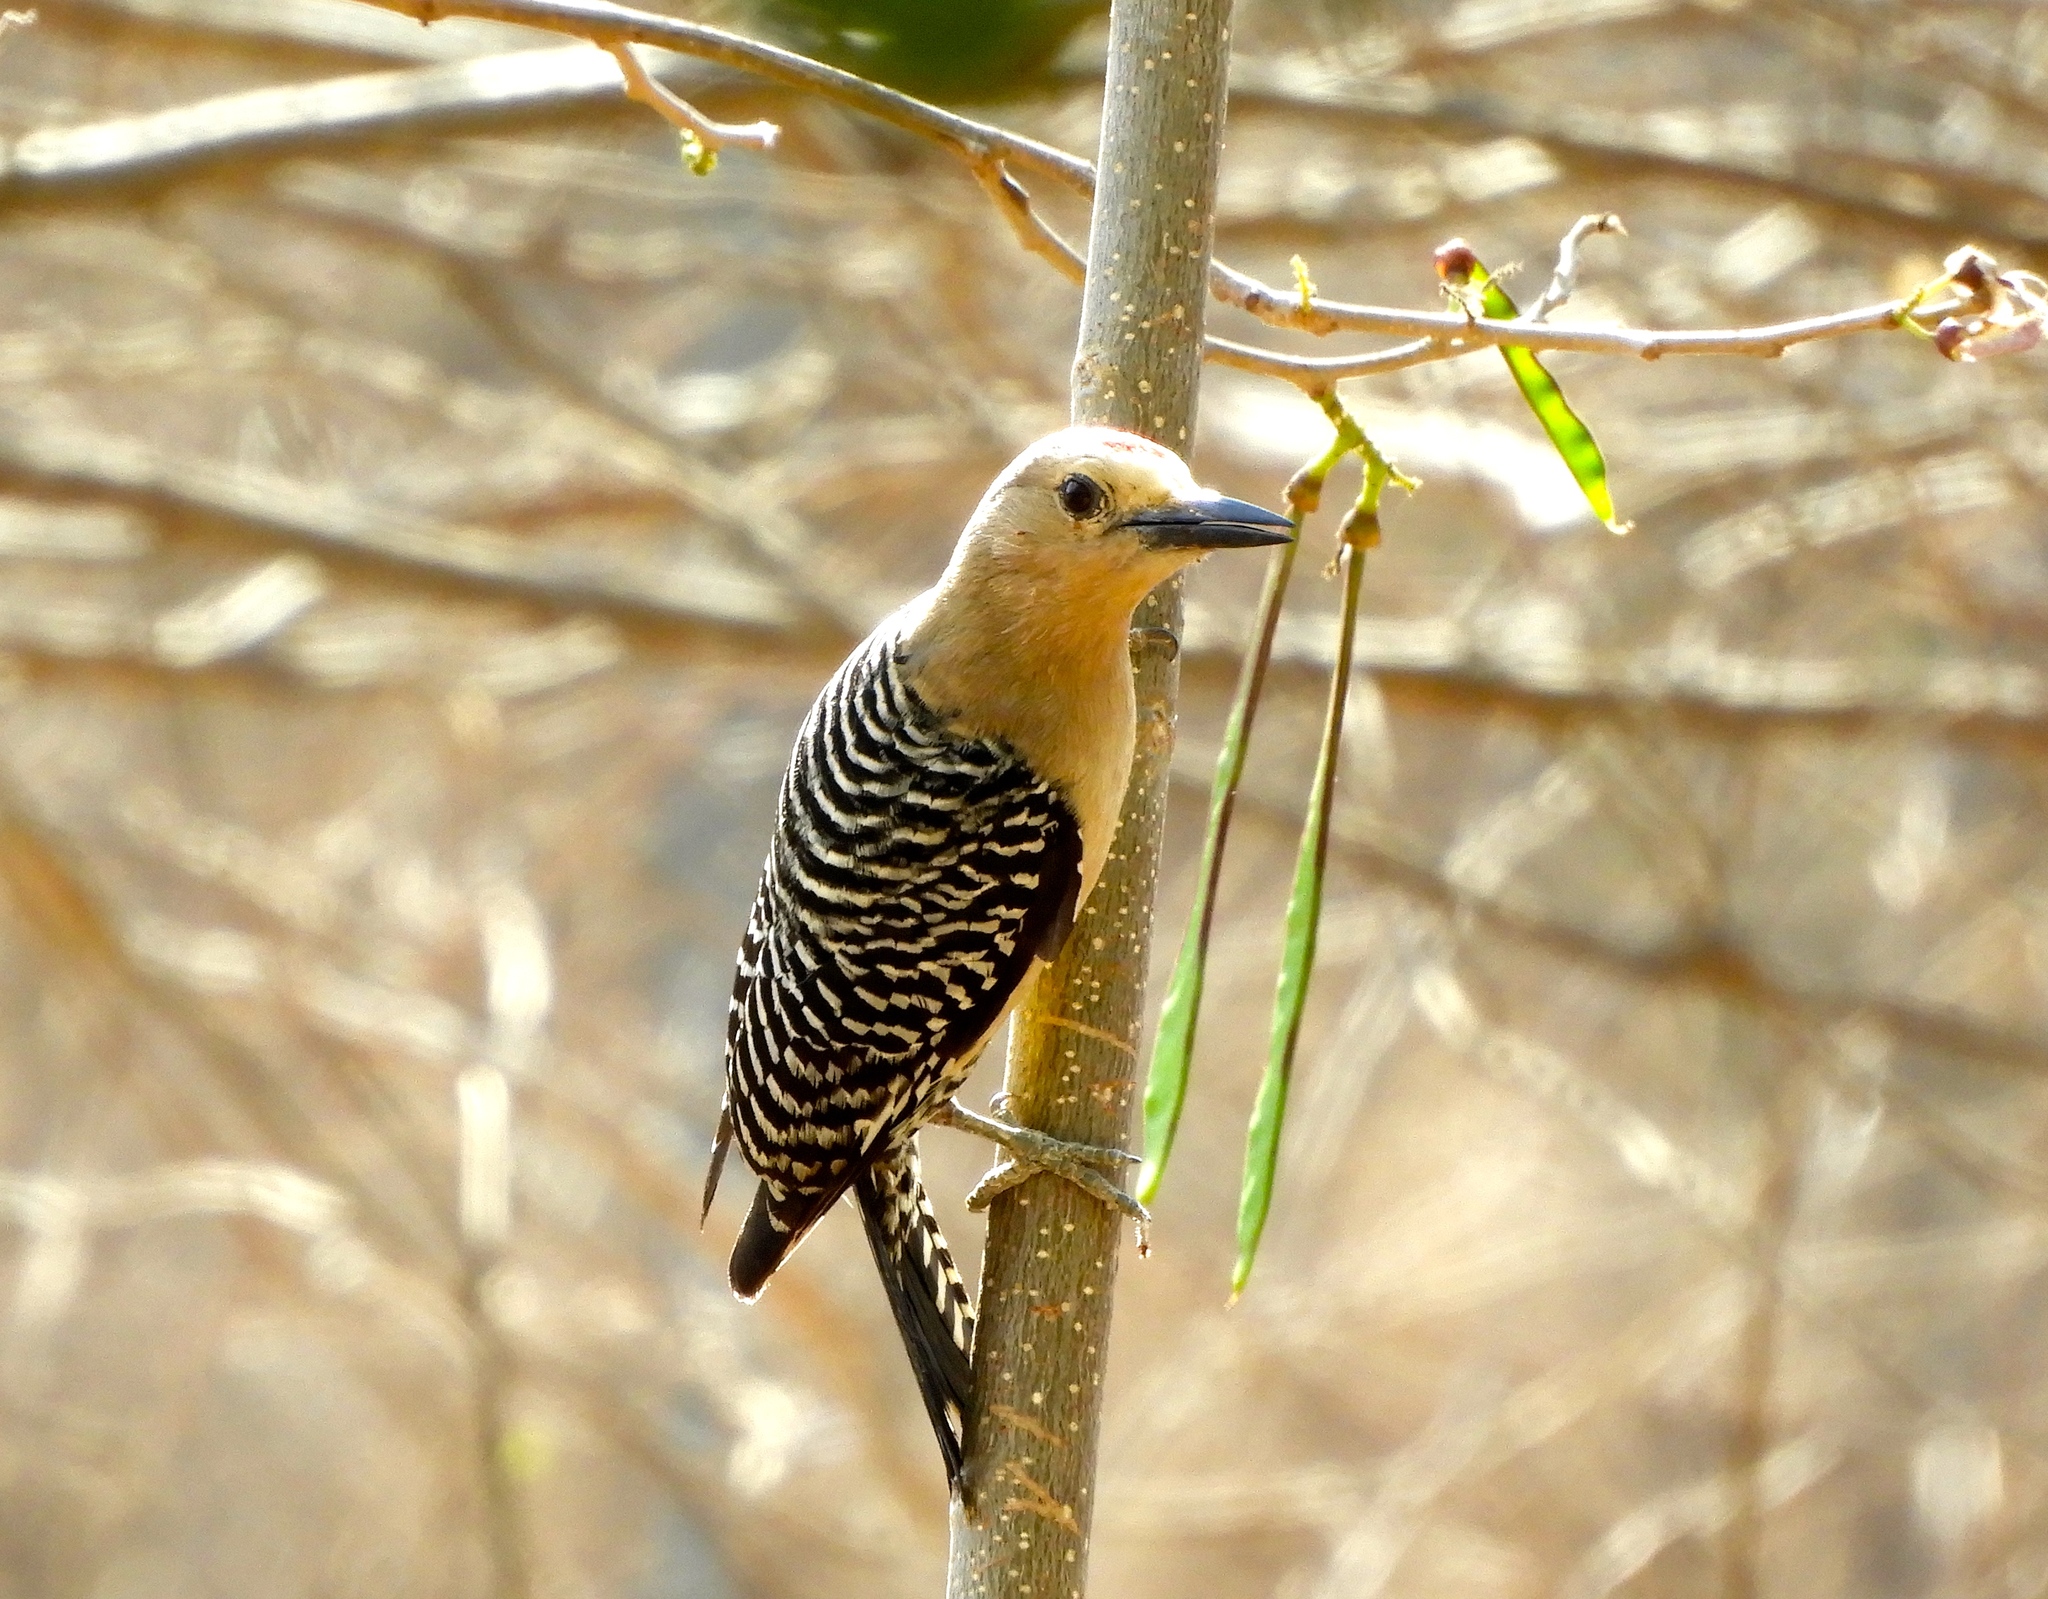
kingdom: Animalia
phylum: Chordata
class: Aves
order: Piciformes
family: Picidae
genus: Melanerpes
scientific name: Melanerpes uropygialis
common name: Gila woodpecker
